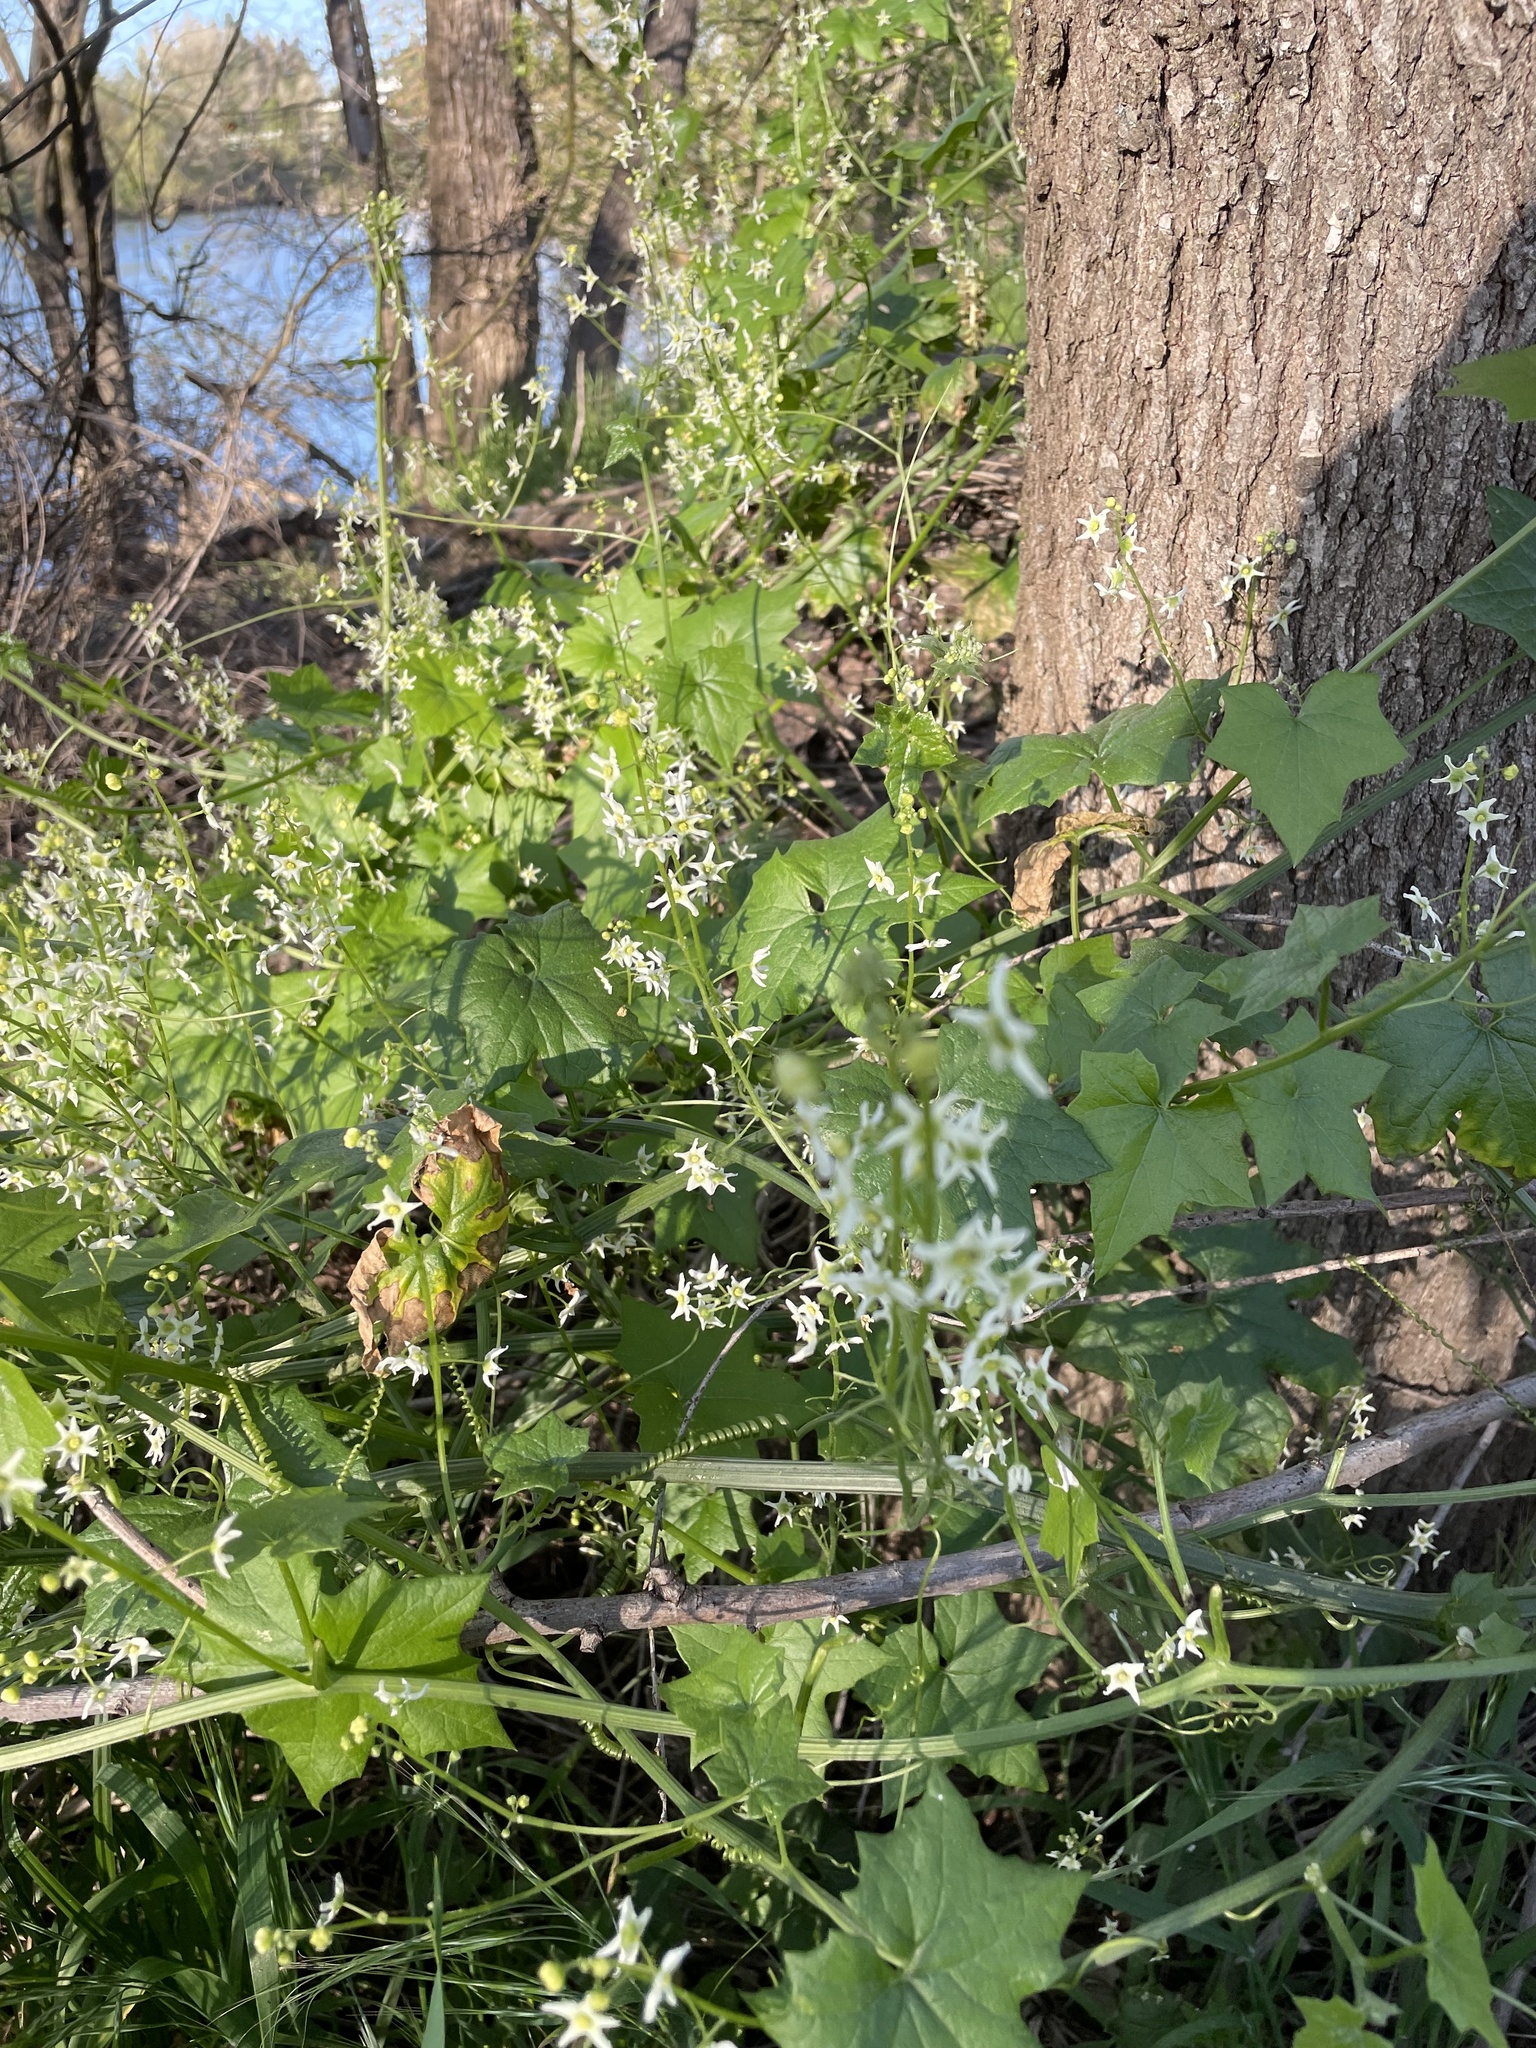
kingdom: Plantae
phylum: Tracheophyta
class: Magnoliopsida
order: Cucurbitales
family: Cucurbitaceae
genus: Marah
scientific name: Marah fabacea
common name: California manroot
